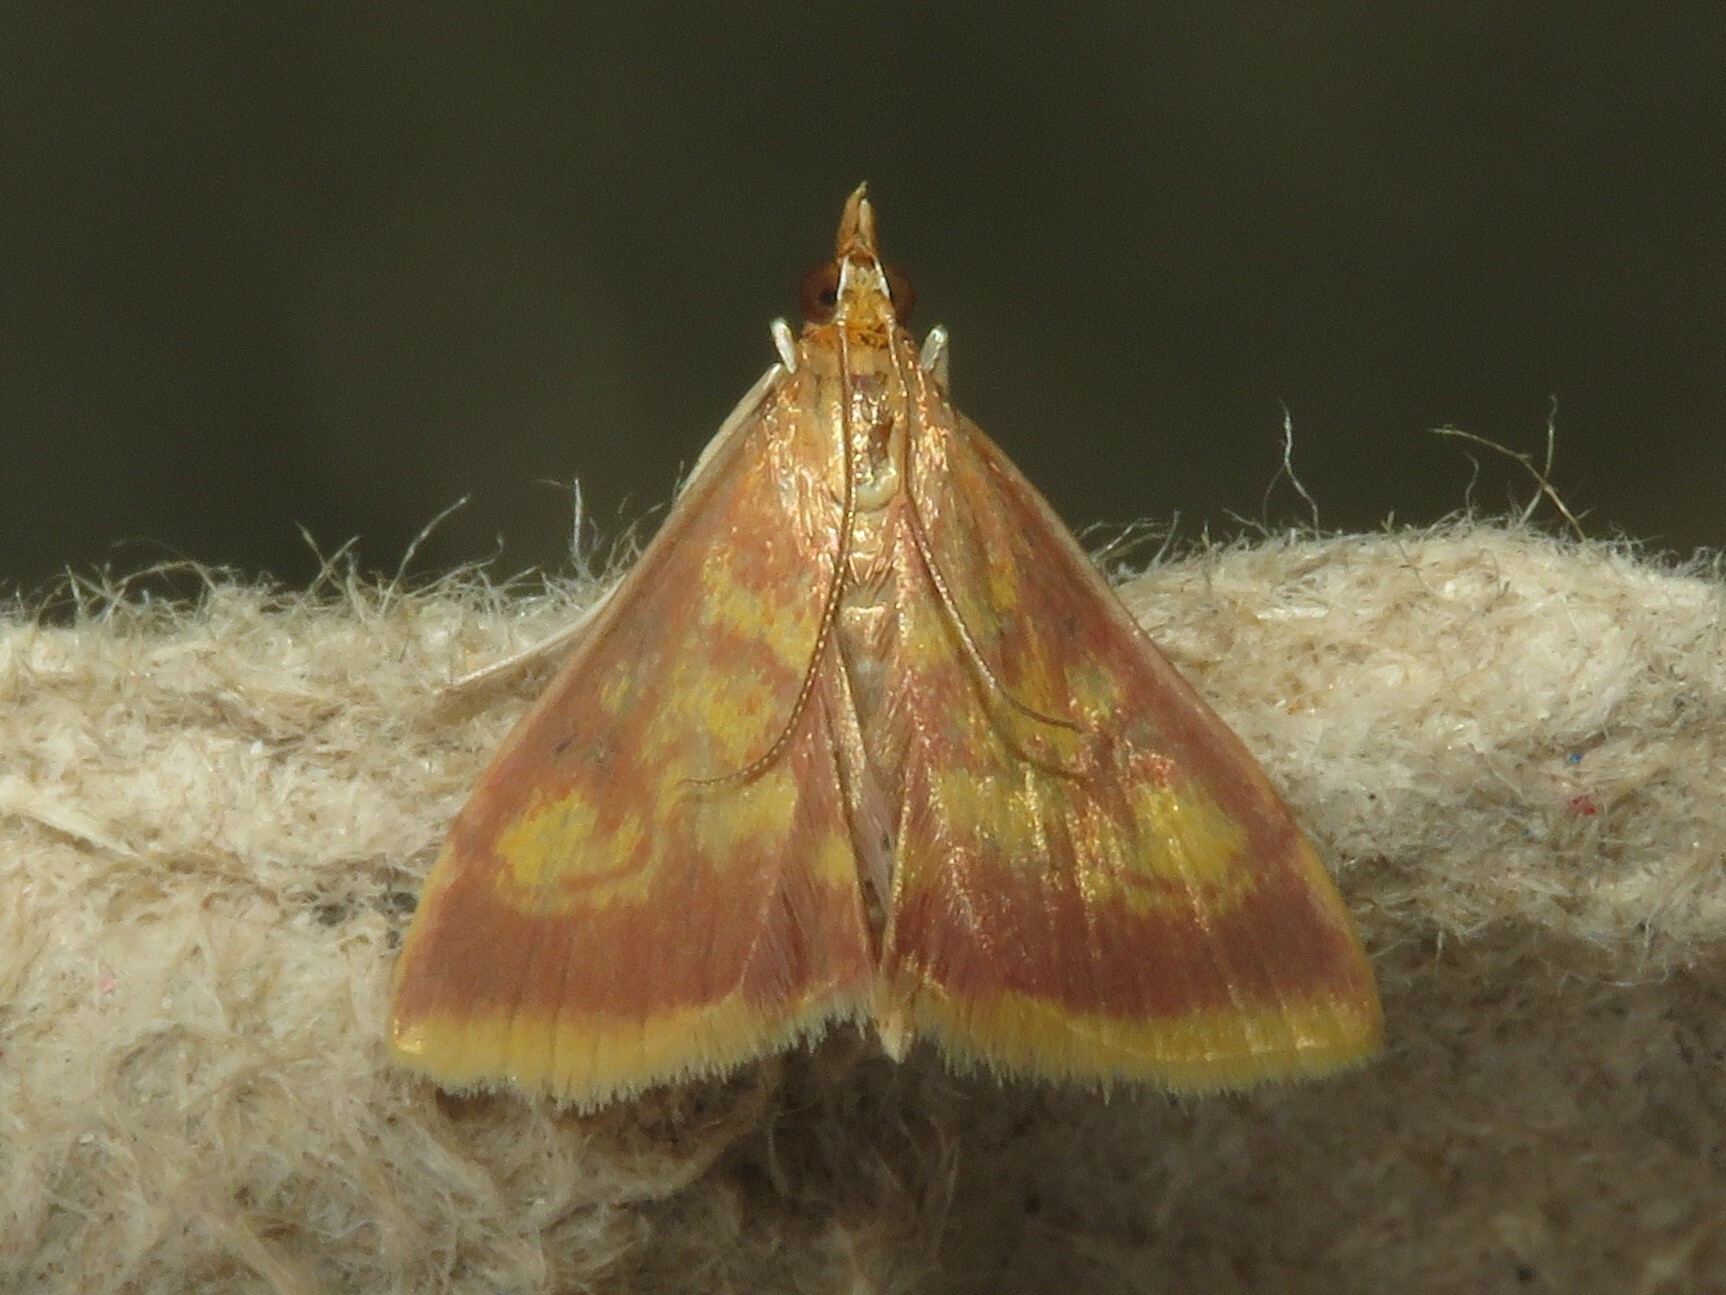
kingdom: Animalia
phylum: Arthropoda
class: Insecta
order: Lepidoptera
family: Crambidae
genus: Pyrausta
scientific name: Pyrausta acrionalis
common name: Mint-loving pyrausta moth
